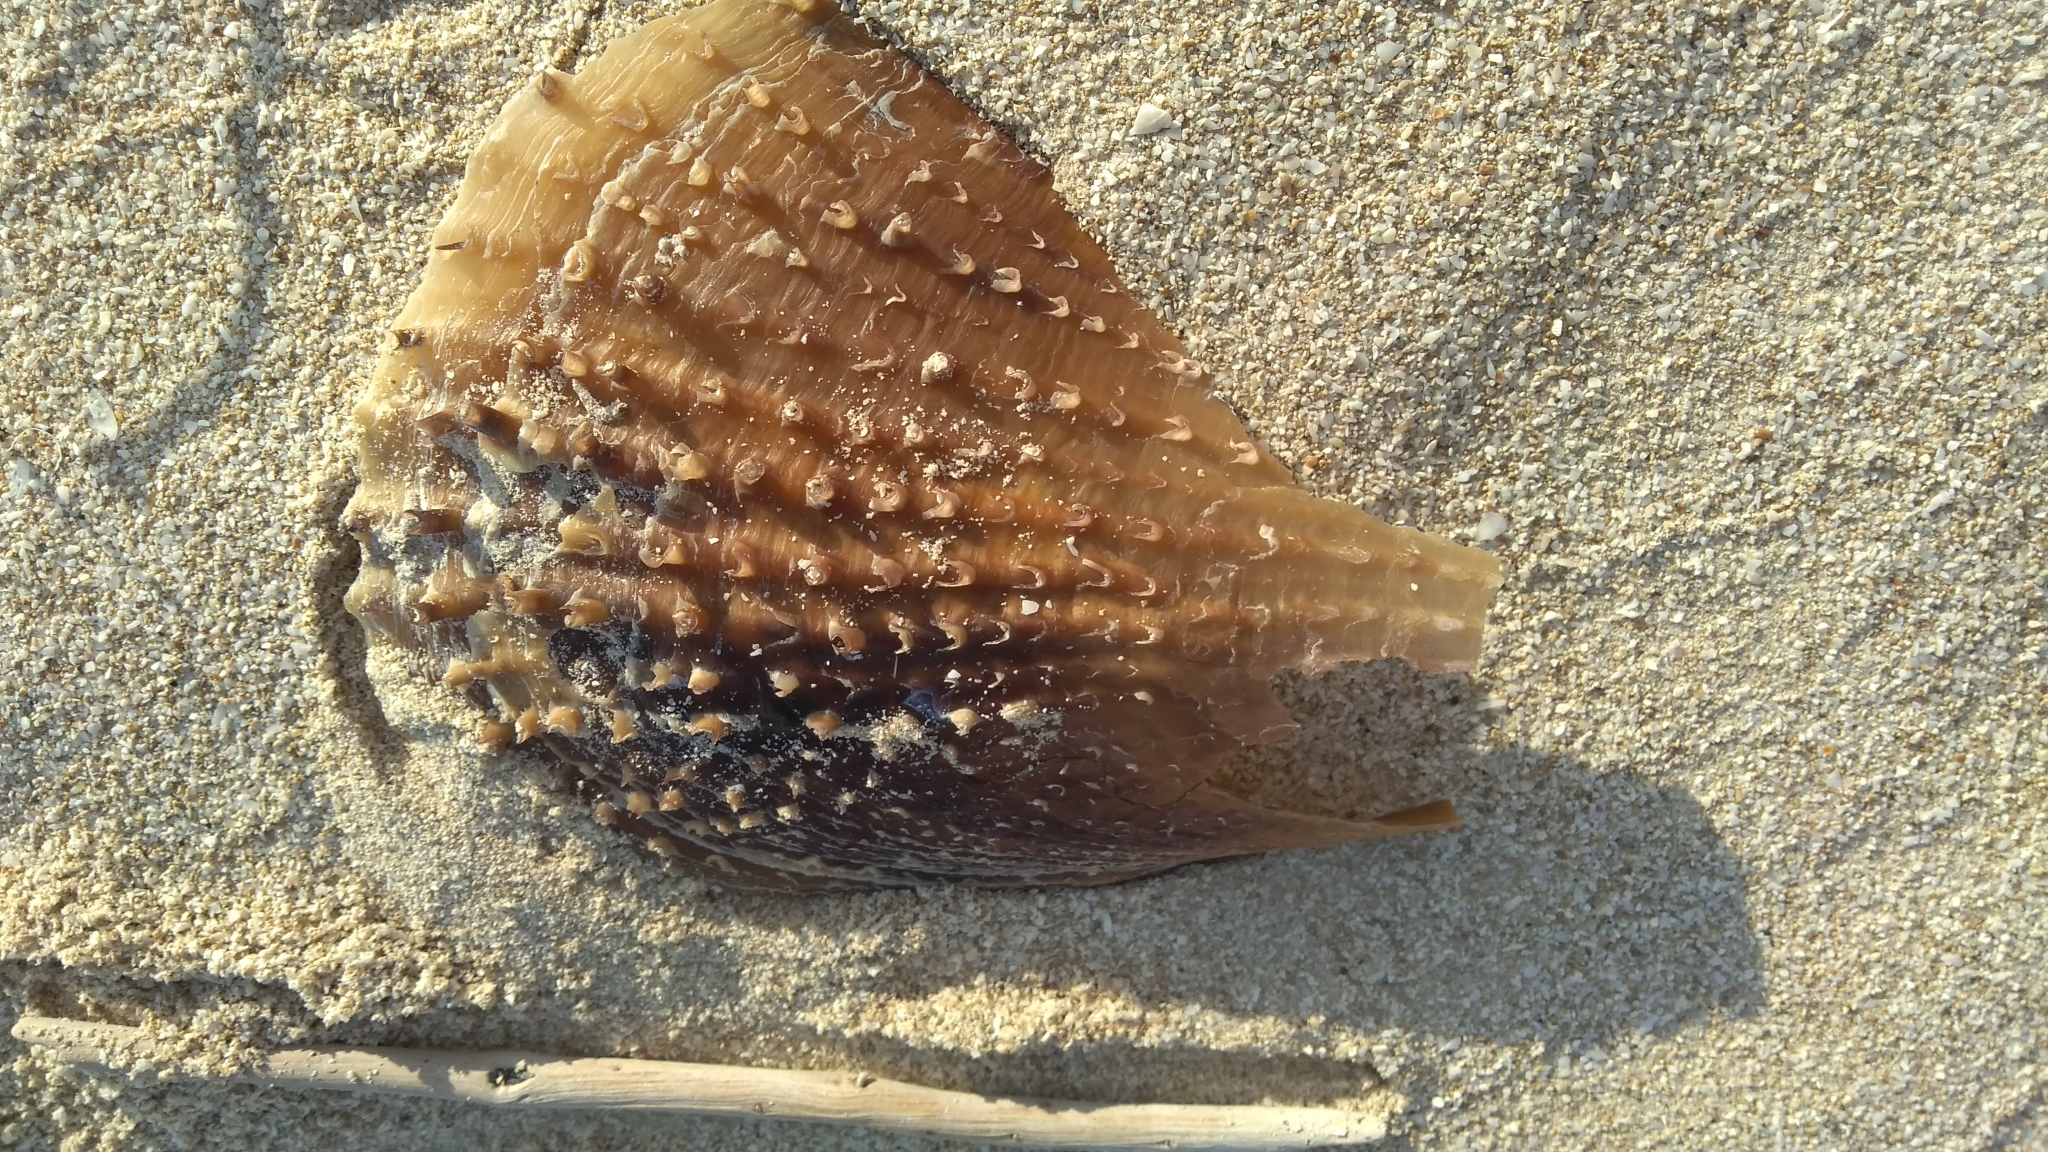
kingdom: Animalia
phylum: Mollusca
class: Bivalvia
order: Ostreida
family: Pinnidae
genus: Atrina
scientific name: Atrina rigida
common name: Stiff penshell
